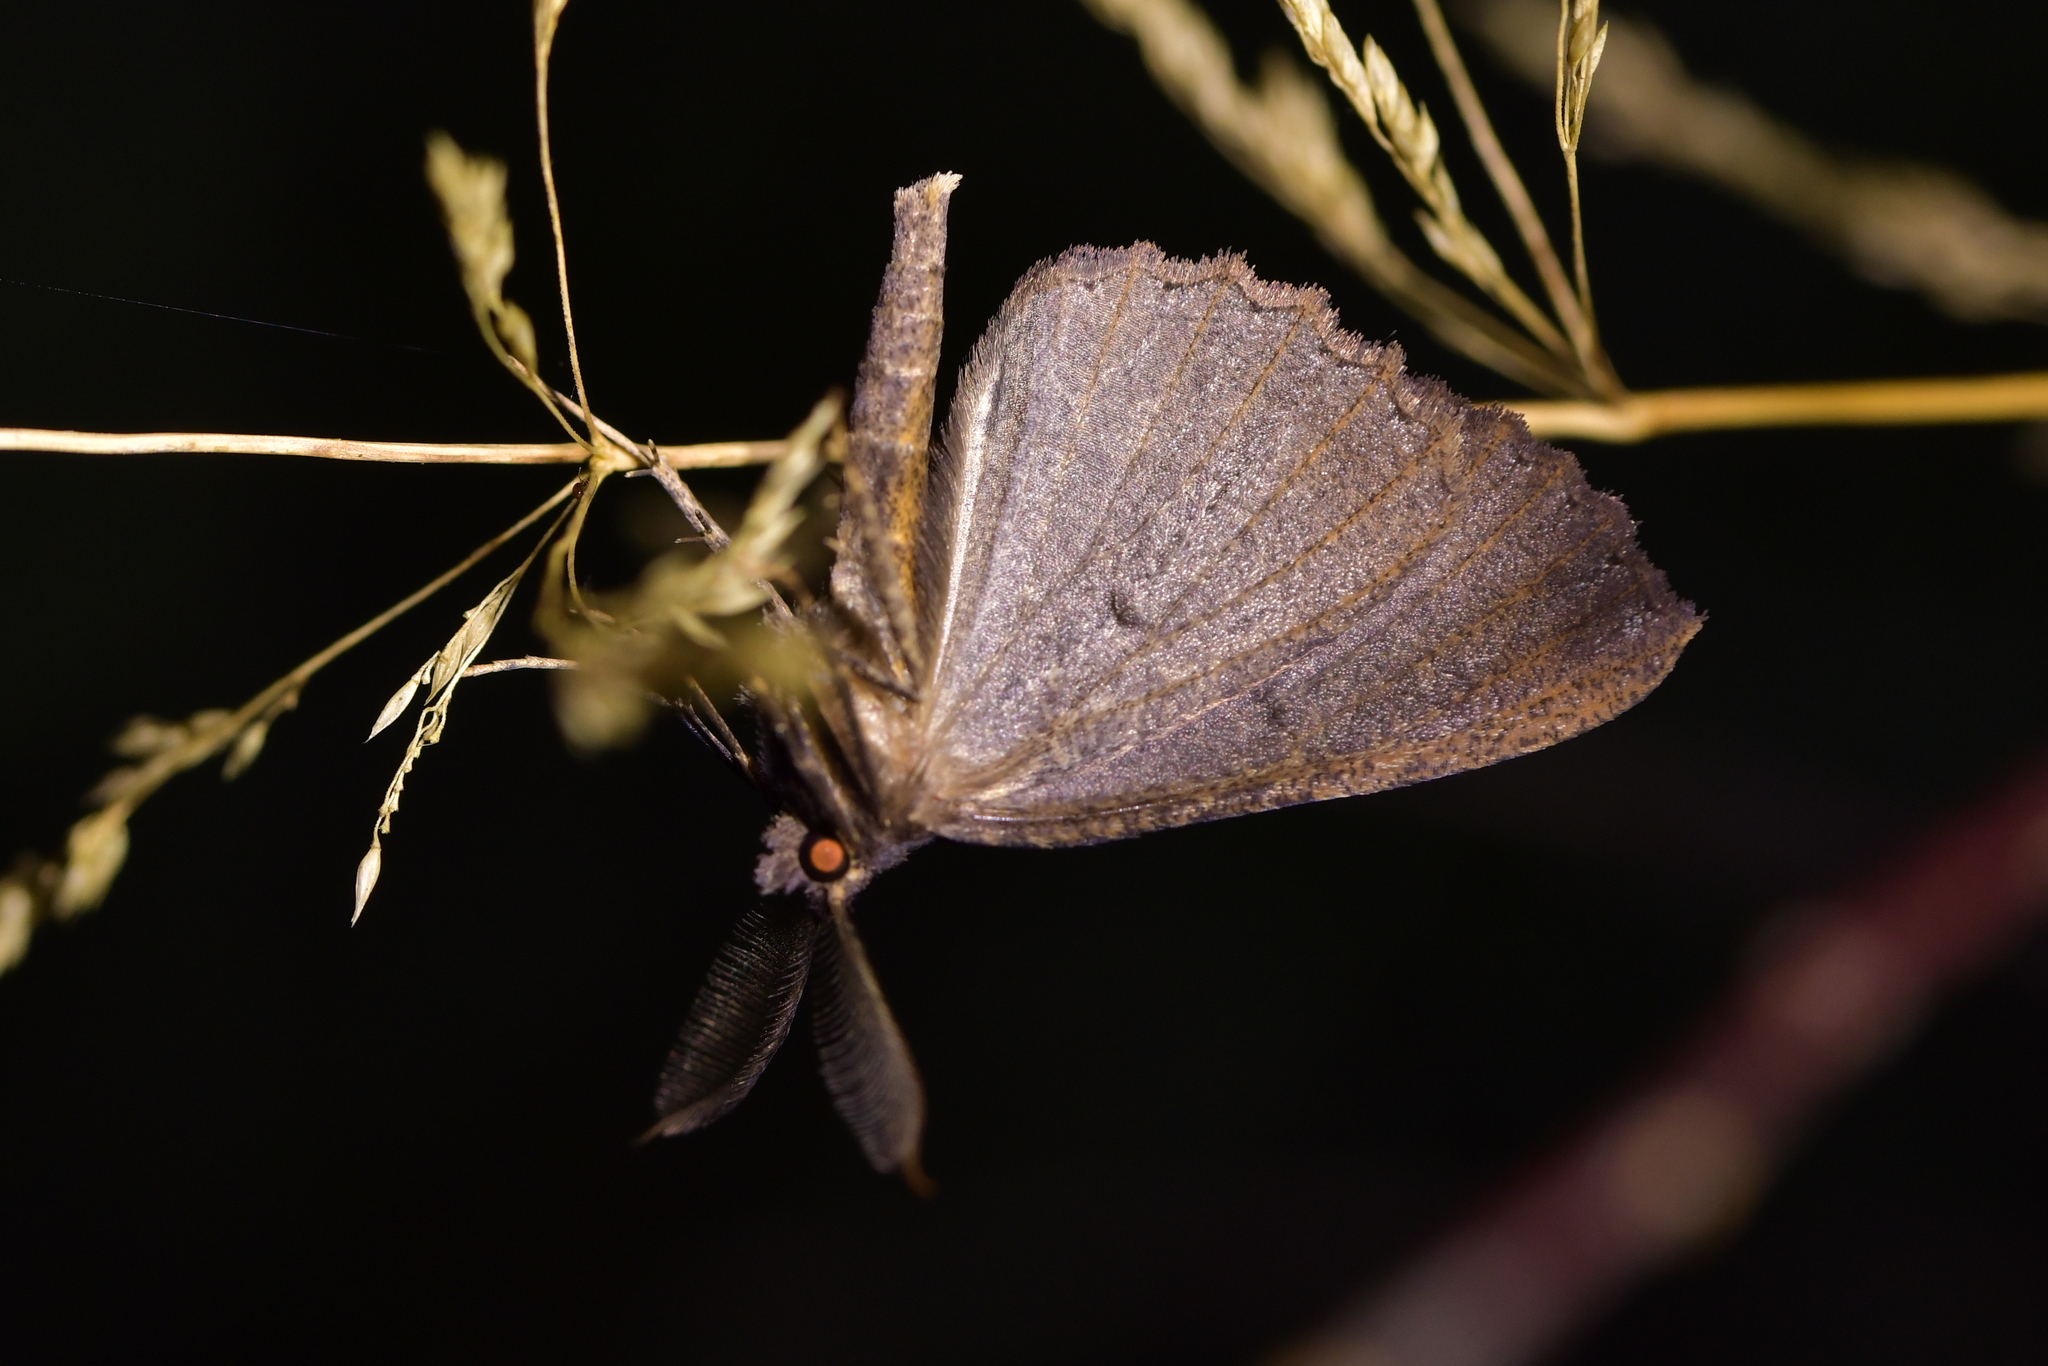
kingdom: Animalia
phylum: Arthropoda
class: Insecta
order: Lepidoptera
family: Geometridae
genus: Cleora
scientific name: Cleora scriptaria
